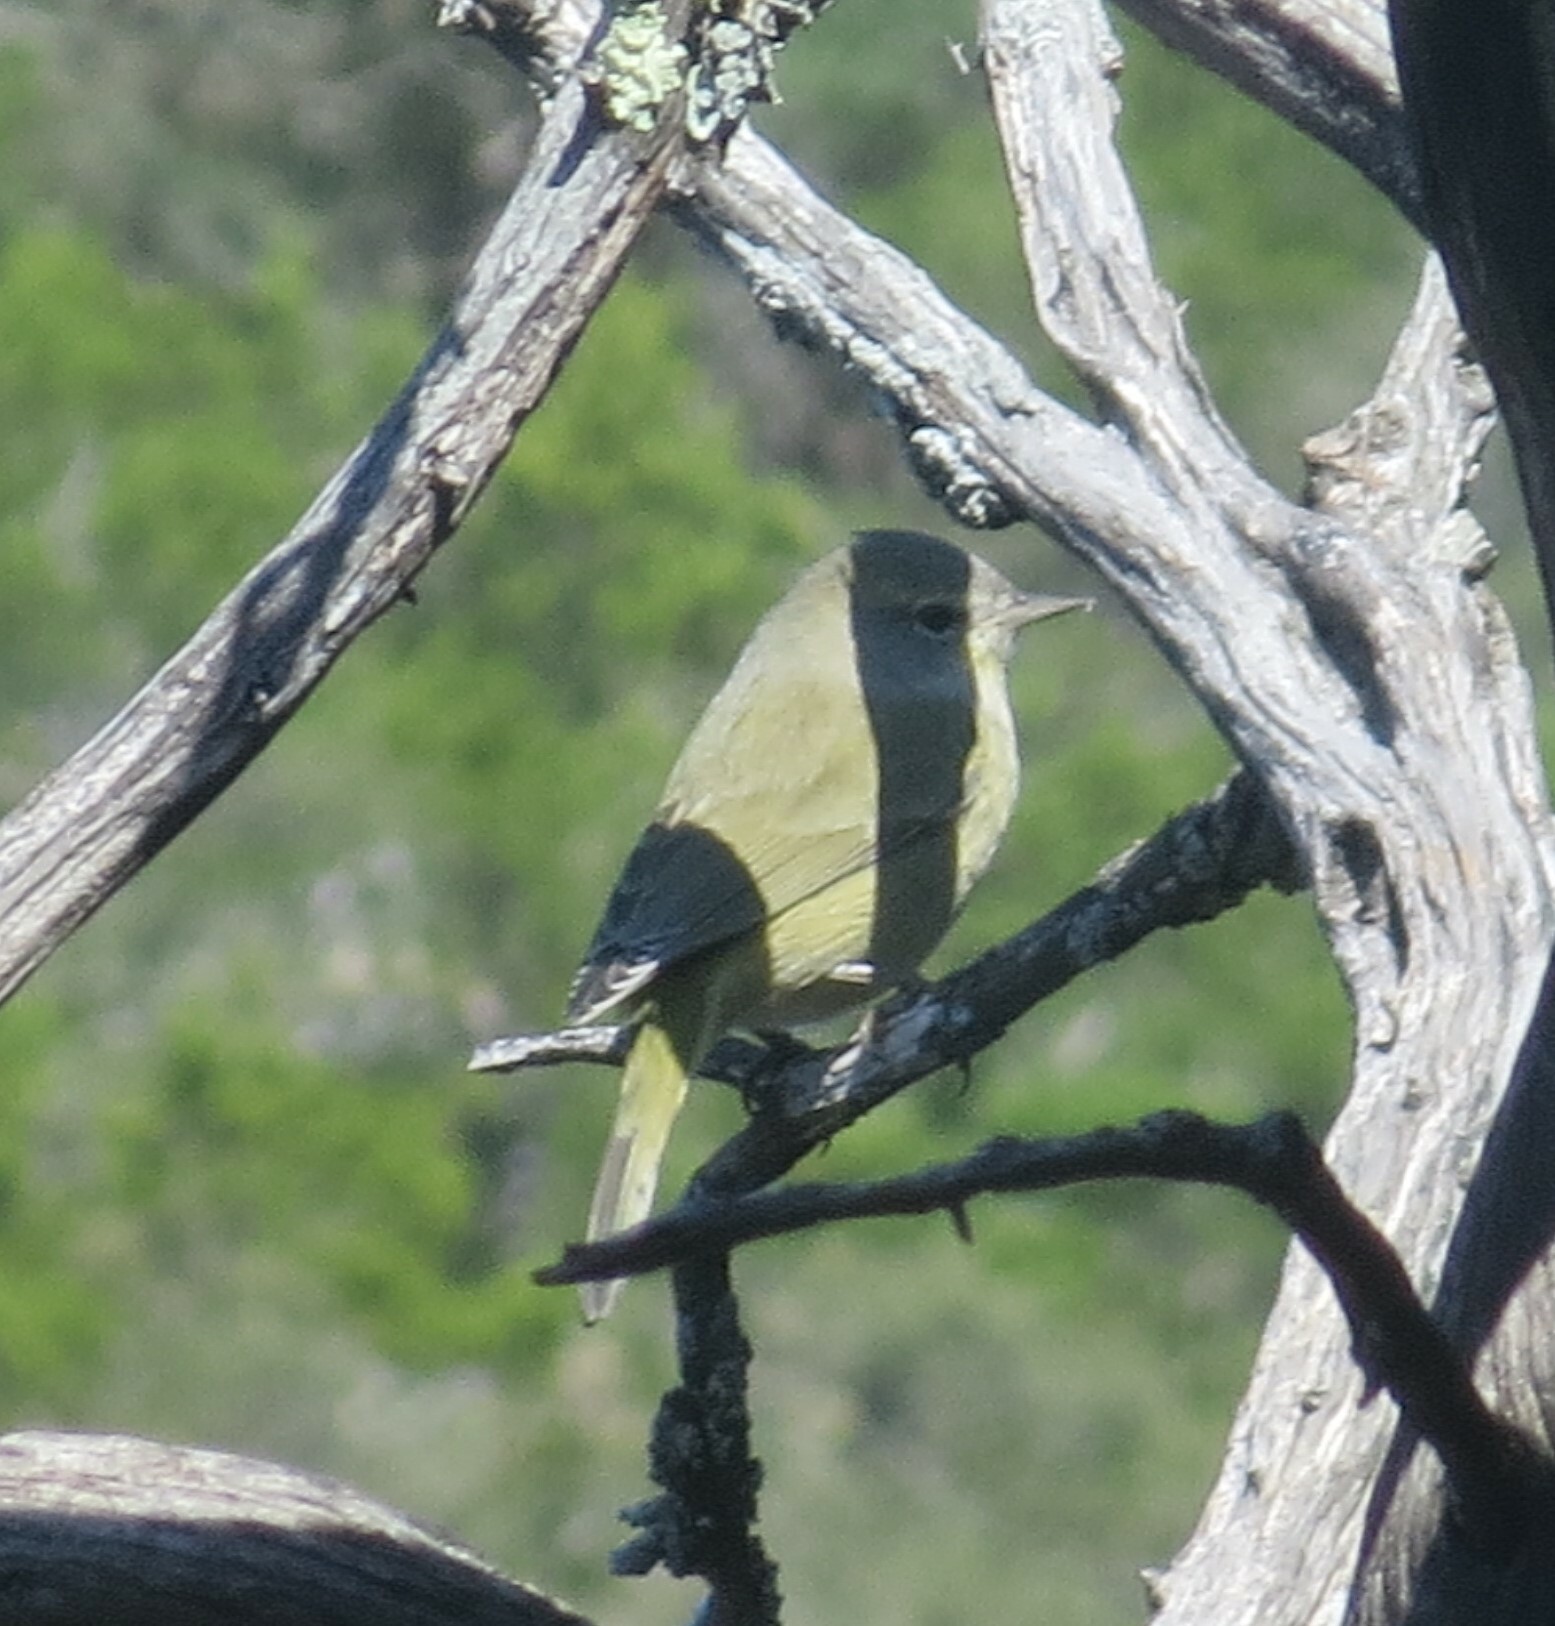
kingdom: Animalia
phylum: Chordata
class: Aves
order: Passeriformes
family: Parulidae
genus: Leiothlypis
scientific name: Leiothlypis celata
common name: Orange-crowned warbler
